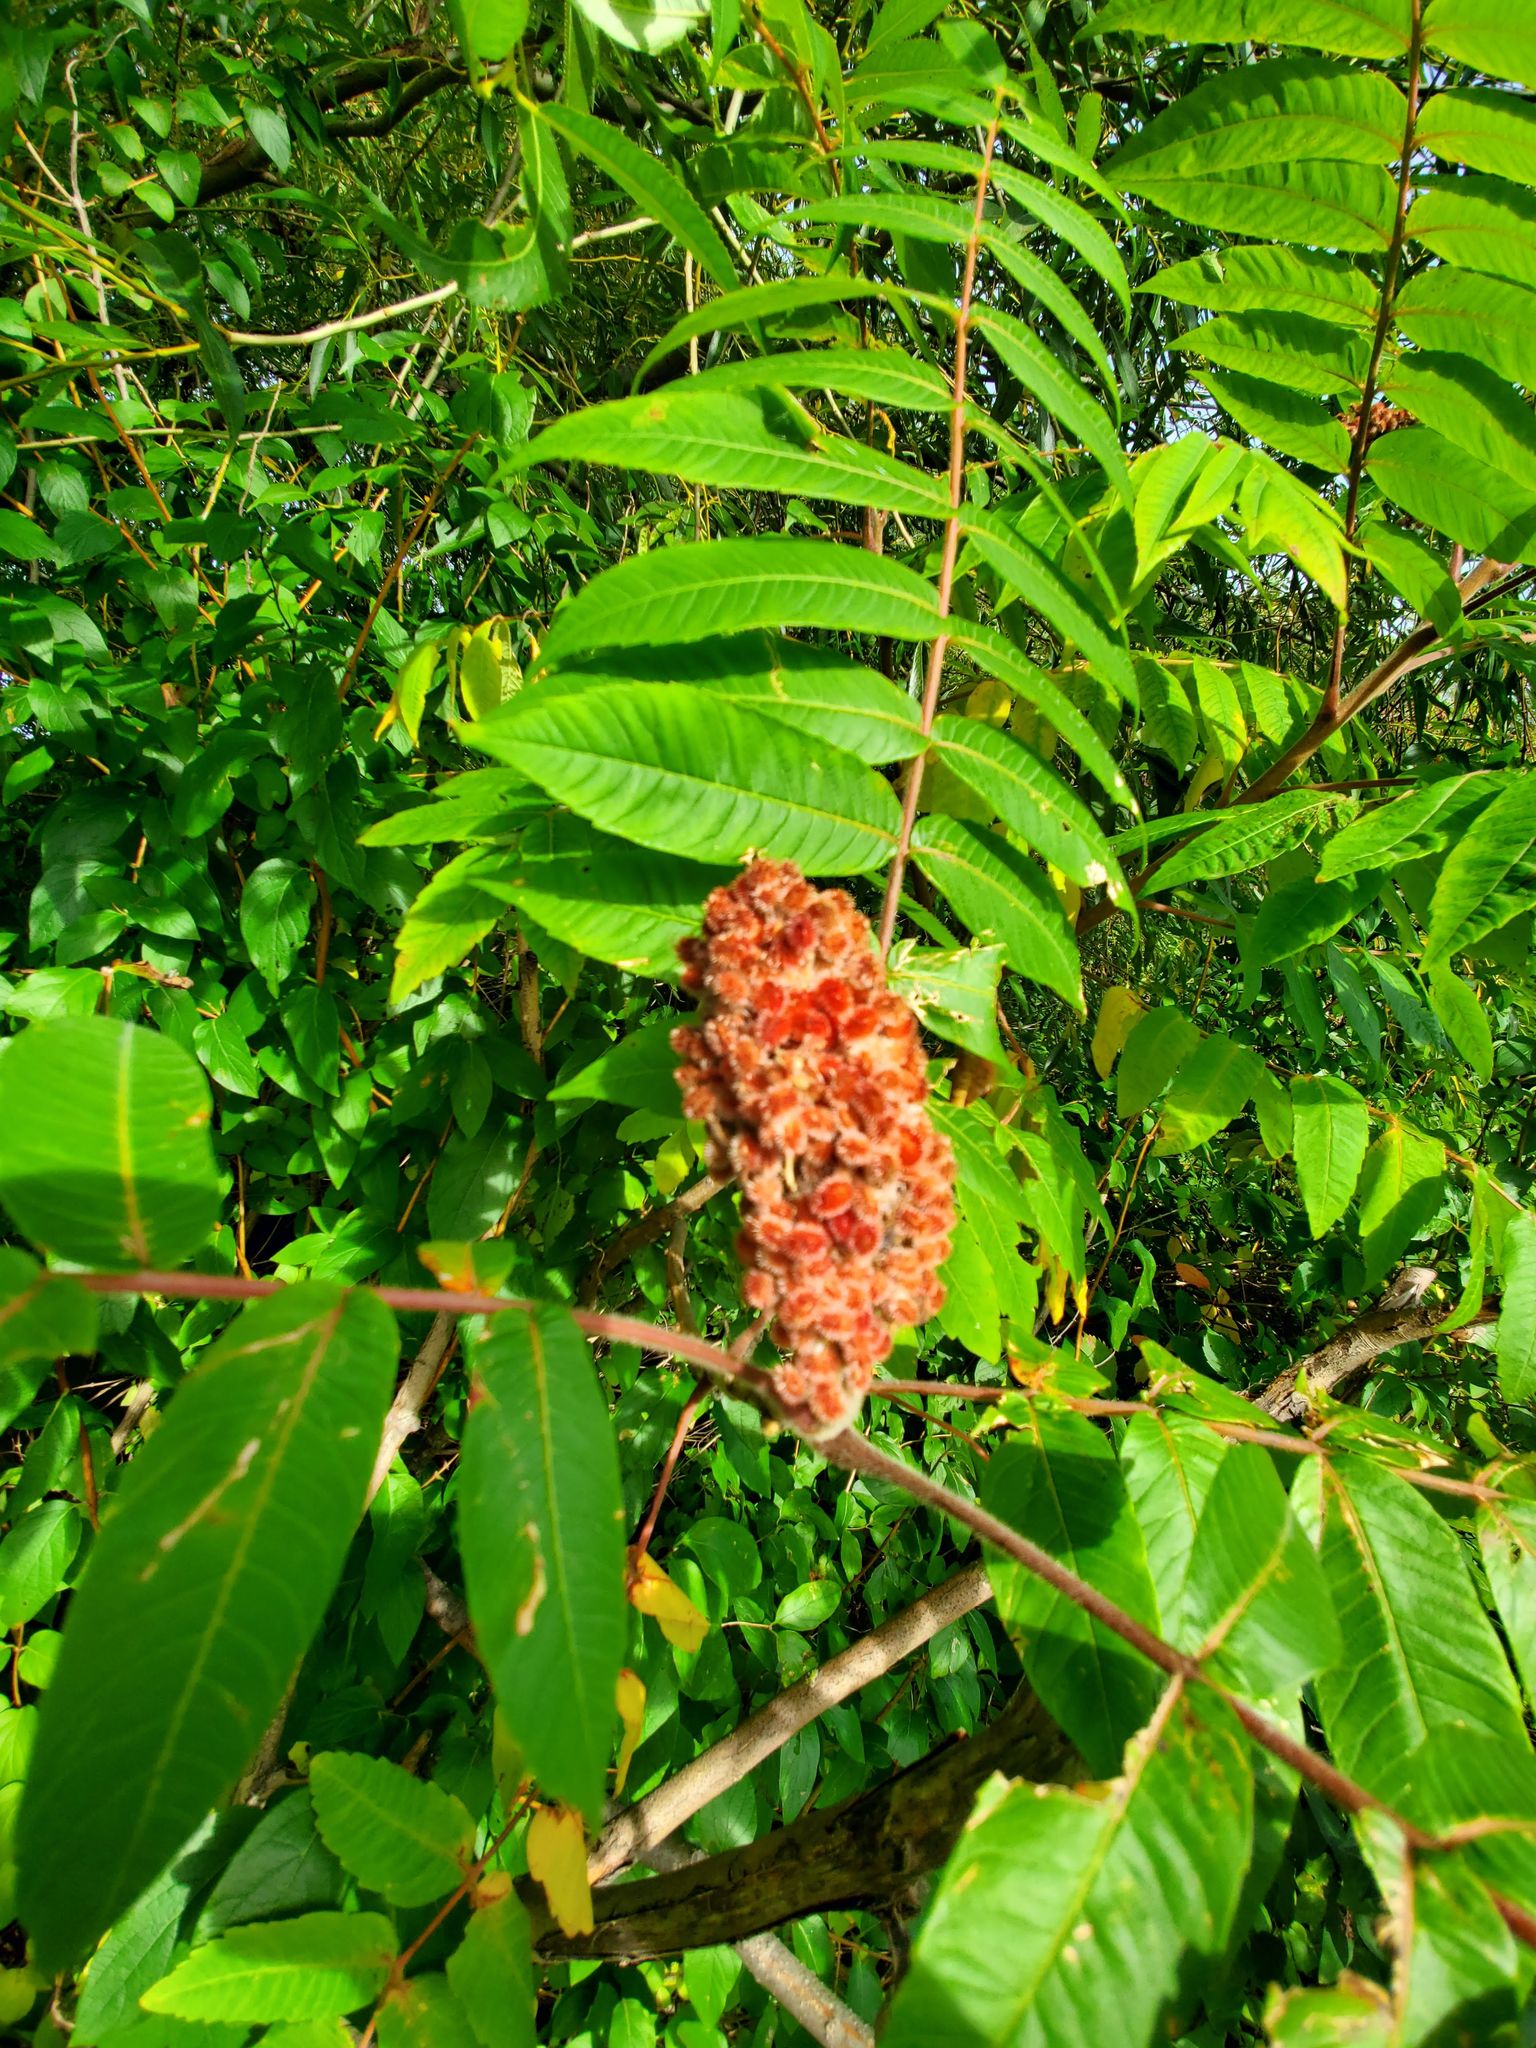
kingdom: Plantae
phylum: Tracheophyta
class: Magnoliopsida
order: Sapindales
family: Anacardiaceae
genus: Rhus
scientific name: Rhus typhina
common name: Staghorn sumac
